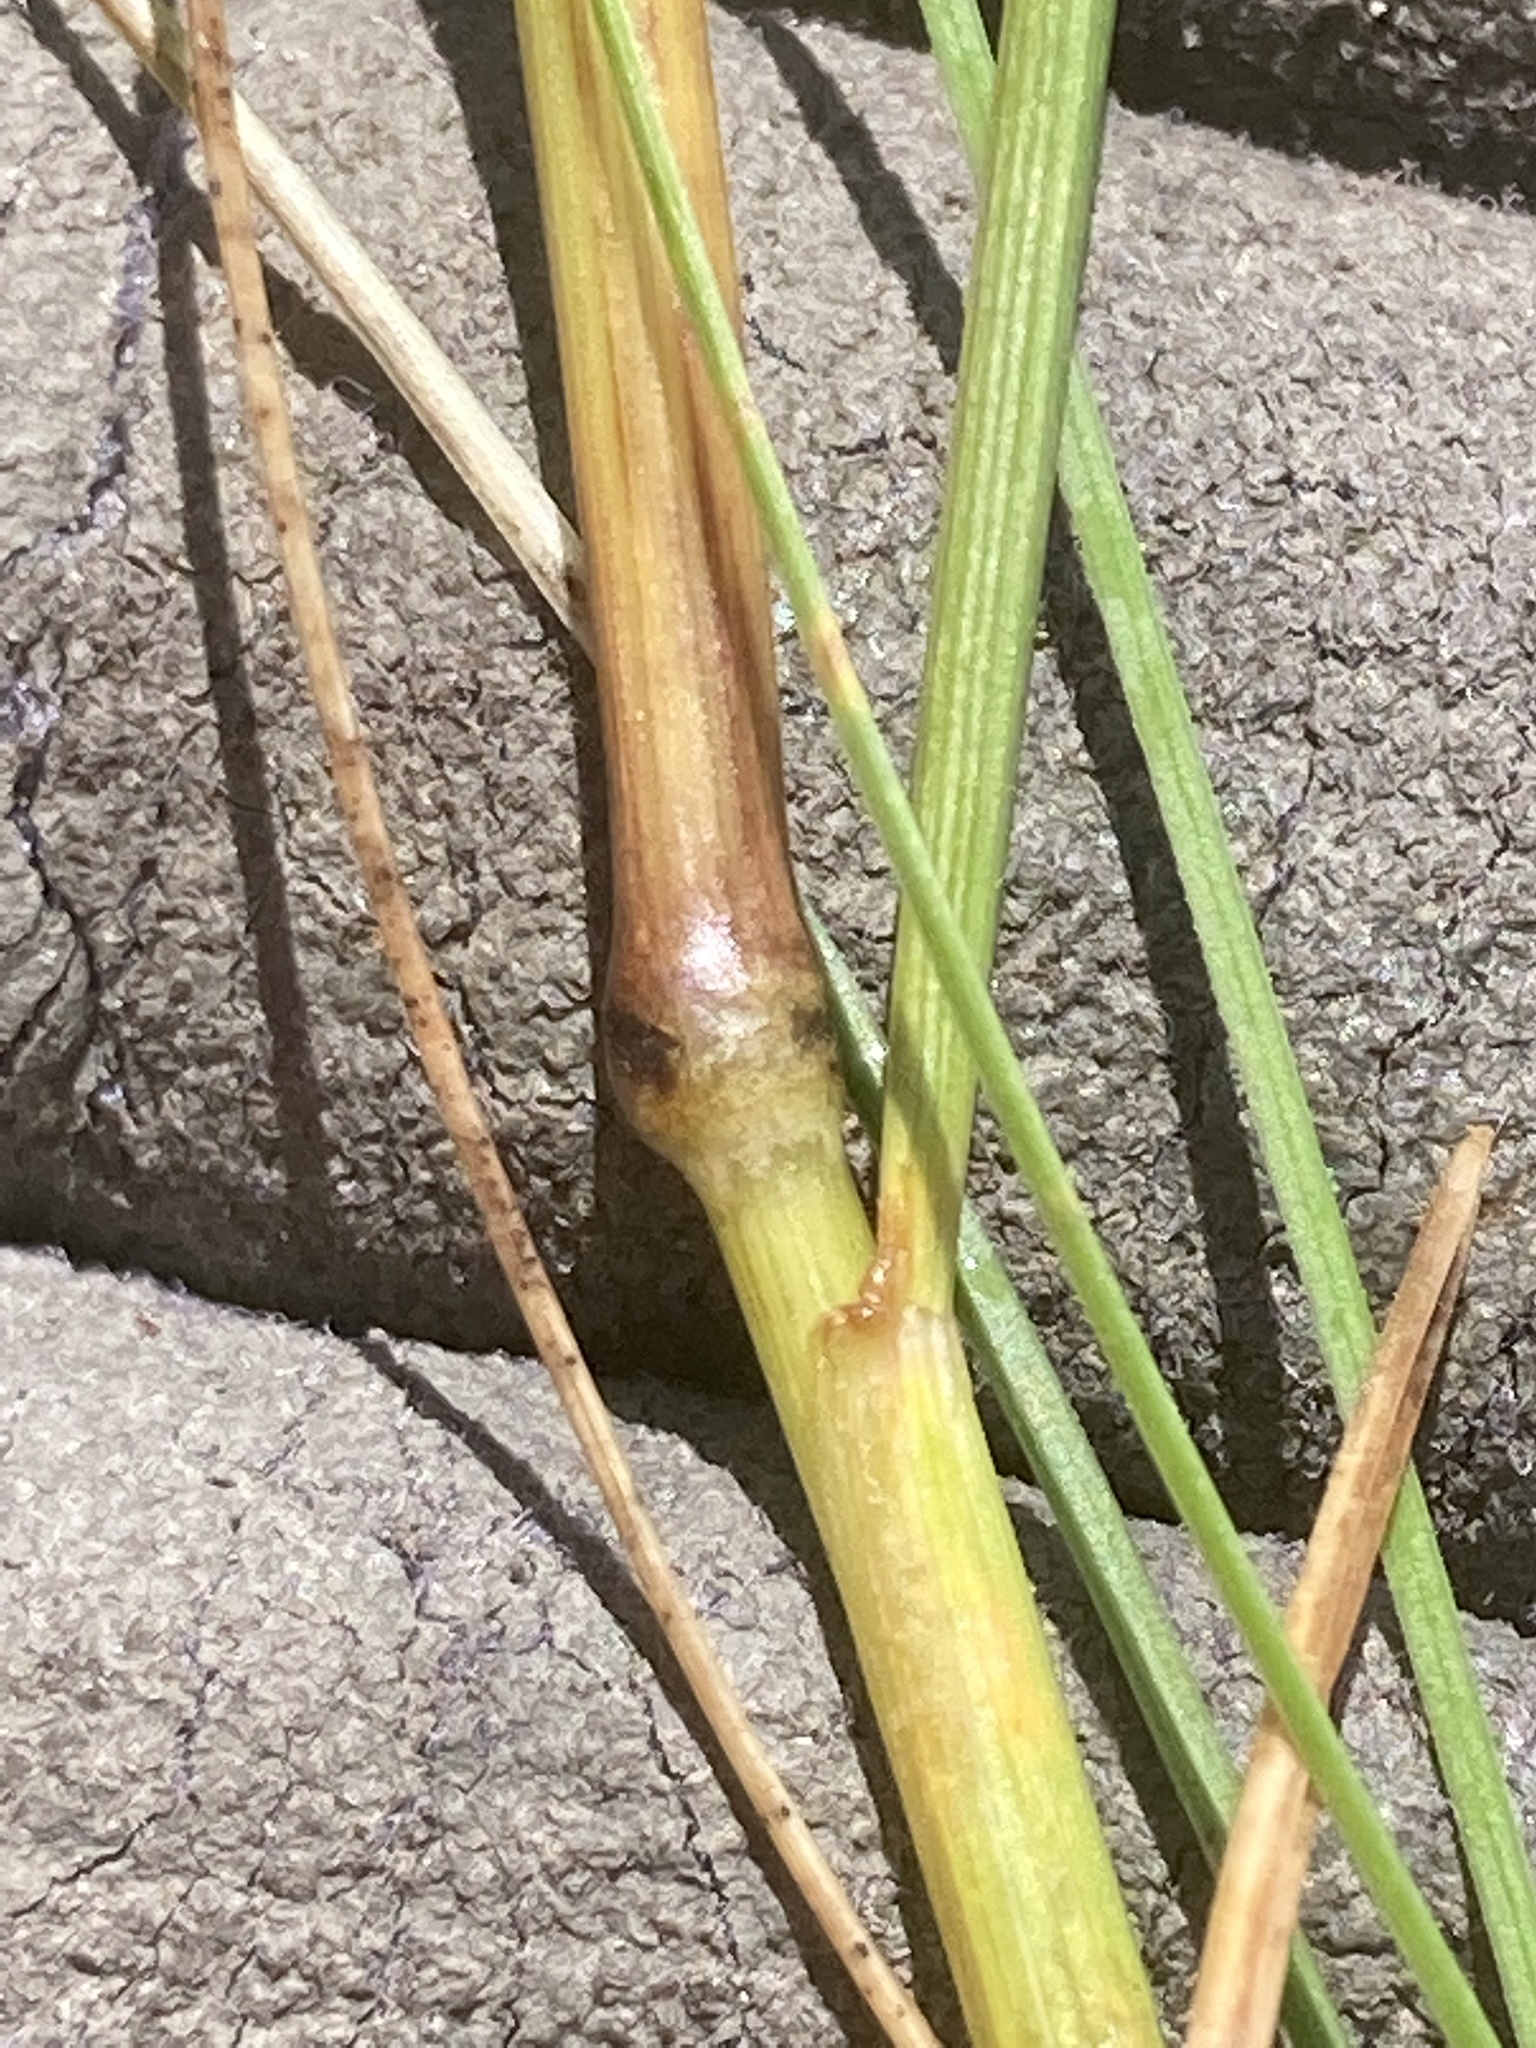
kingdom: Plantae
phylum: Tracheophyta
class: Liliopsida
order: Poales
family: Cyperaceae
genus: Carex
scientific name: Carex leporina
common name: Oval sedge
